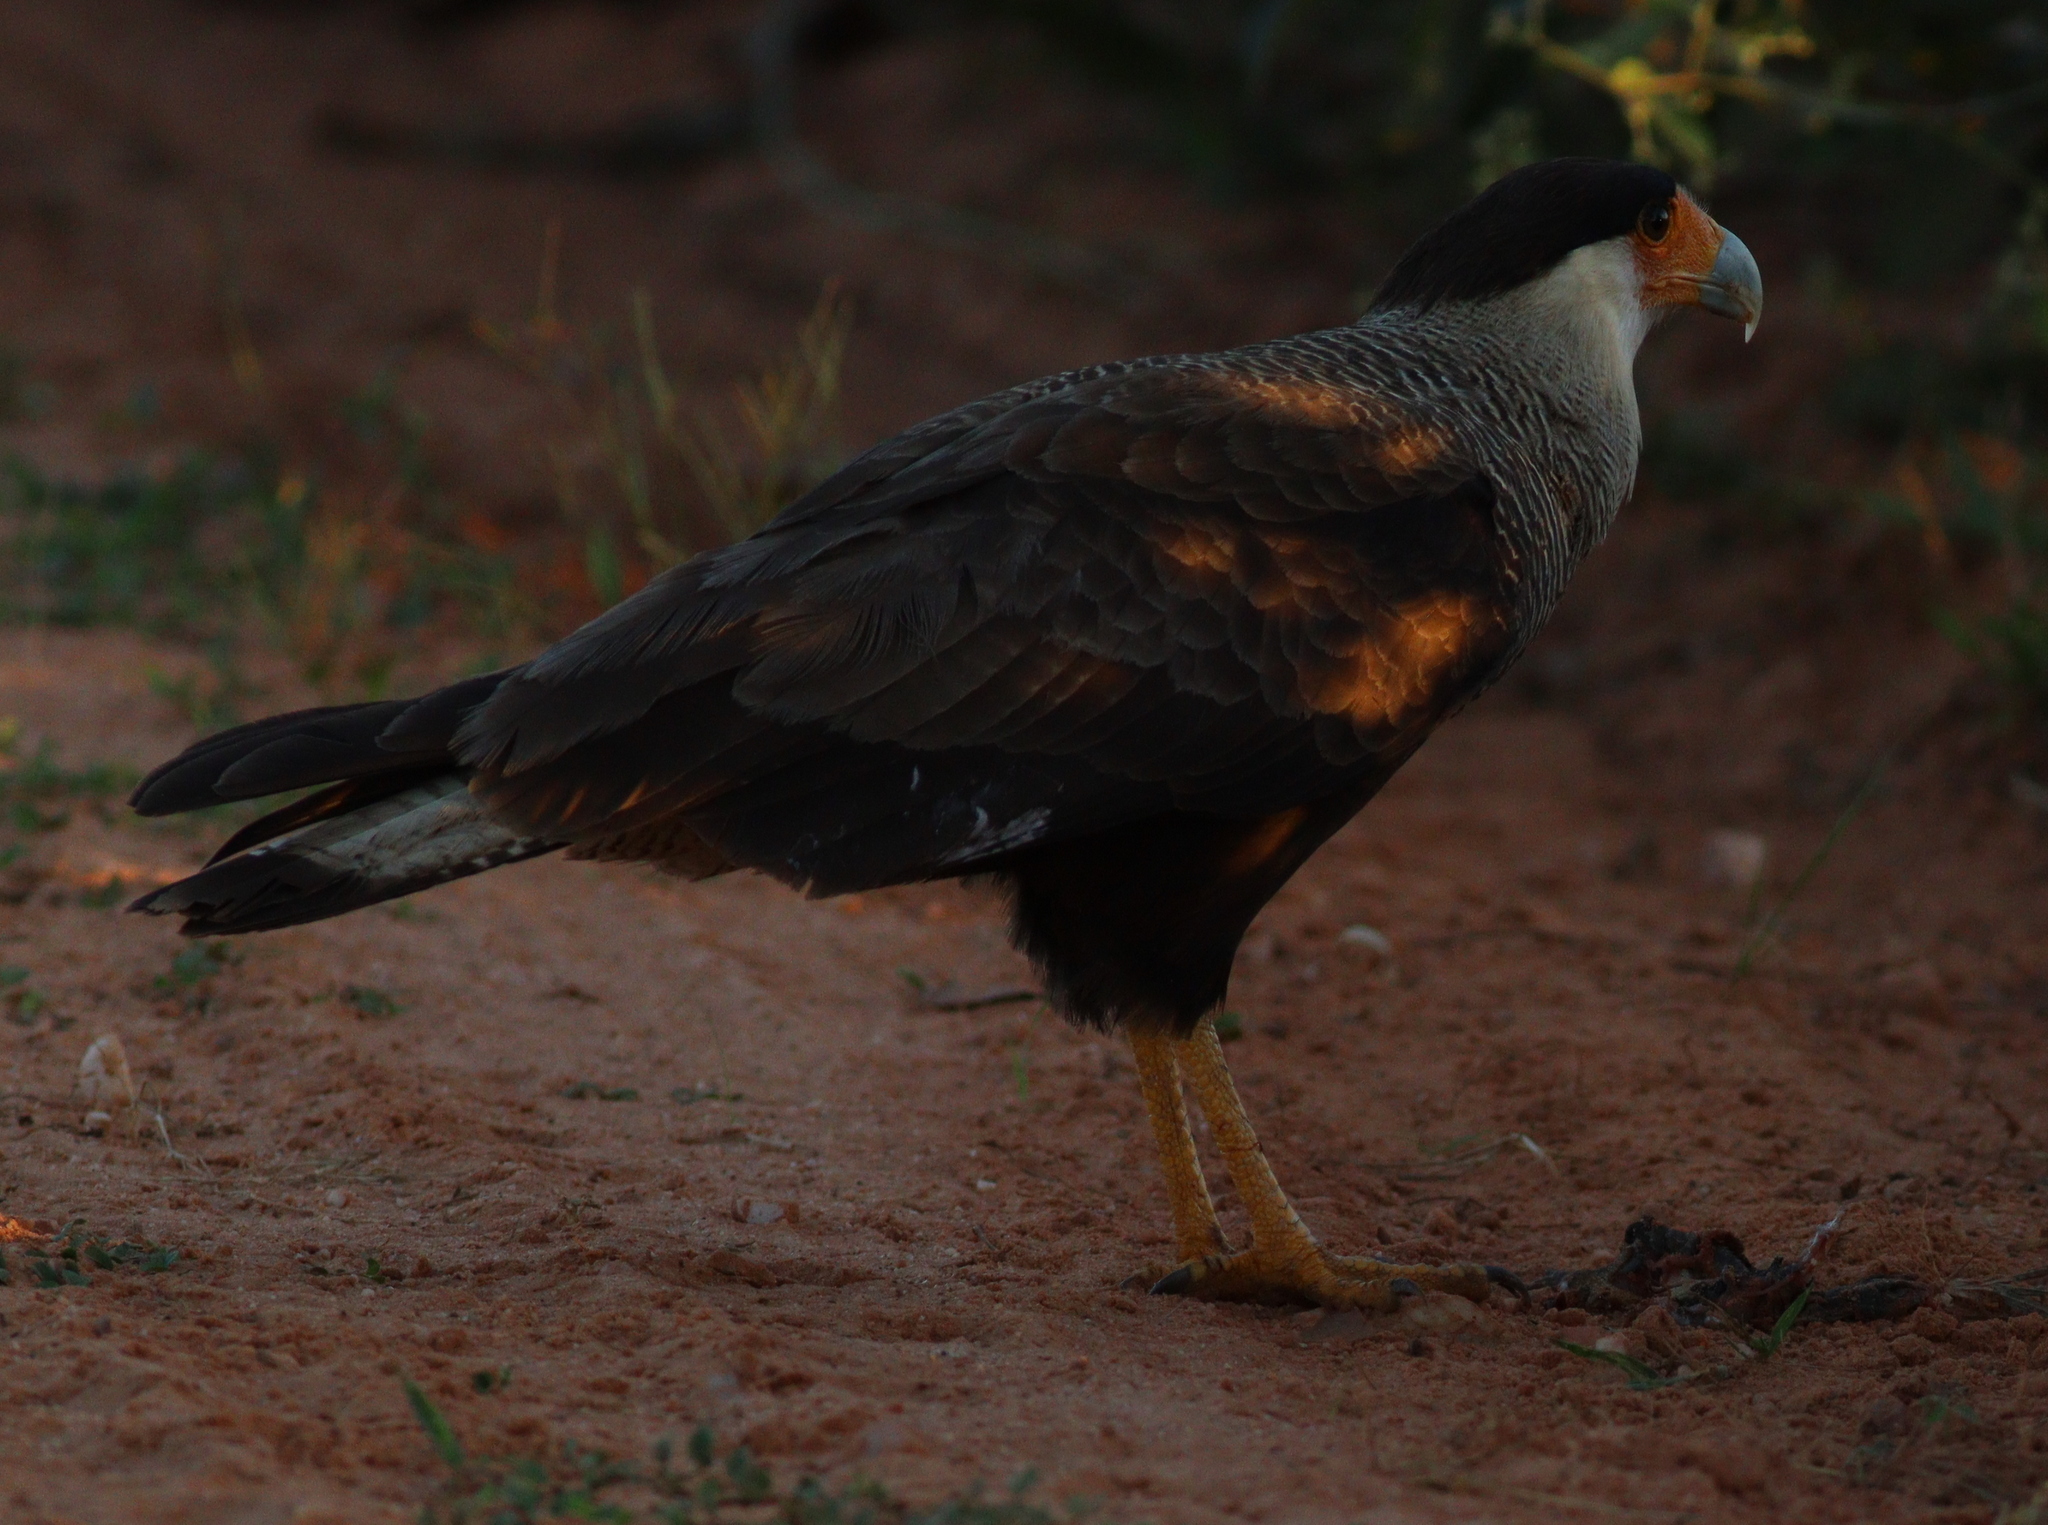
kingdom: Animalia
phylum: Chordata
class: Aves
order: Falconiformes
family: Falconidae
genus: Caracara
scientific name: Caracara plancus
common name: Southern caracara
